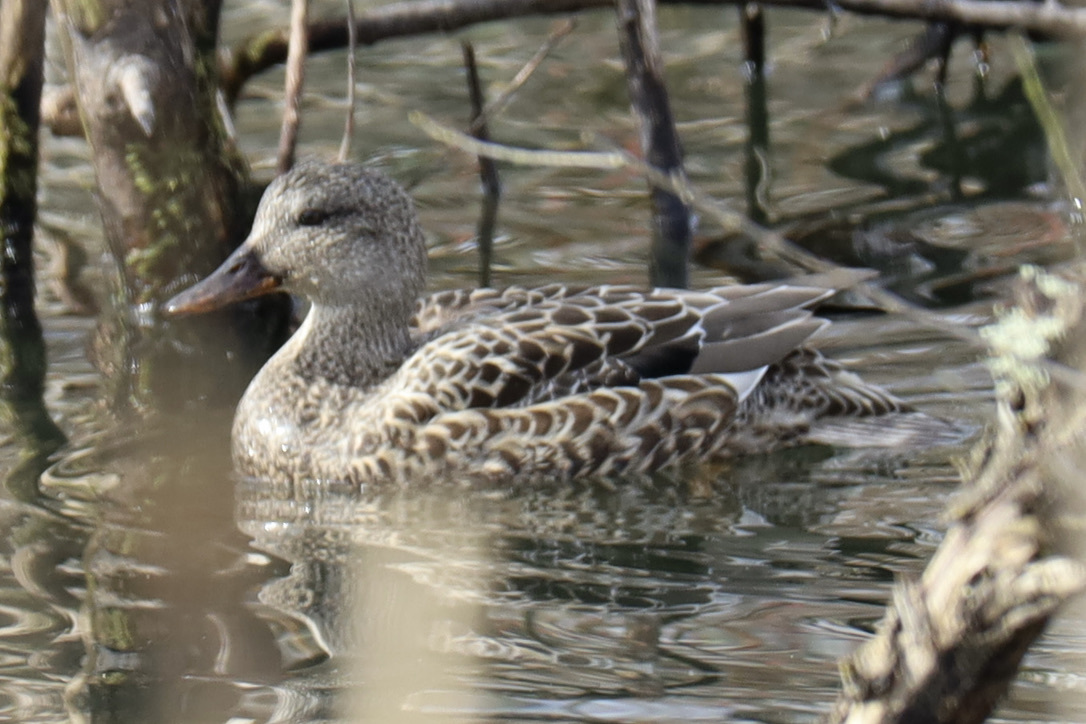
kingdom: Animalia
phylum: Chordata
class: Aves
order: Anseriformes
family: Anatidae
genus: Mareca
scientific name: Mareca strepera
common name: Gadwall
